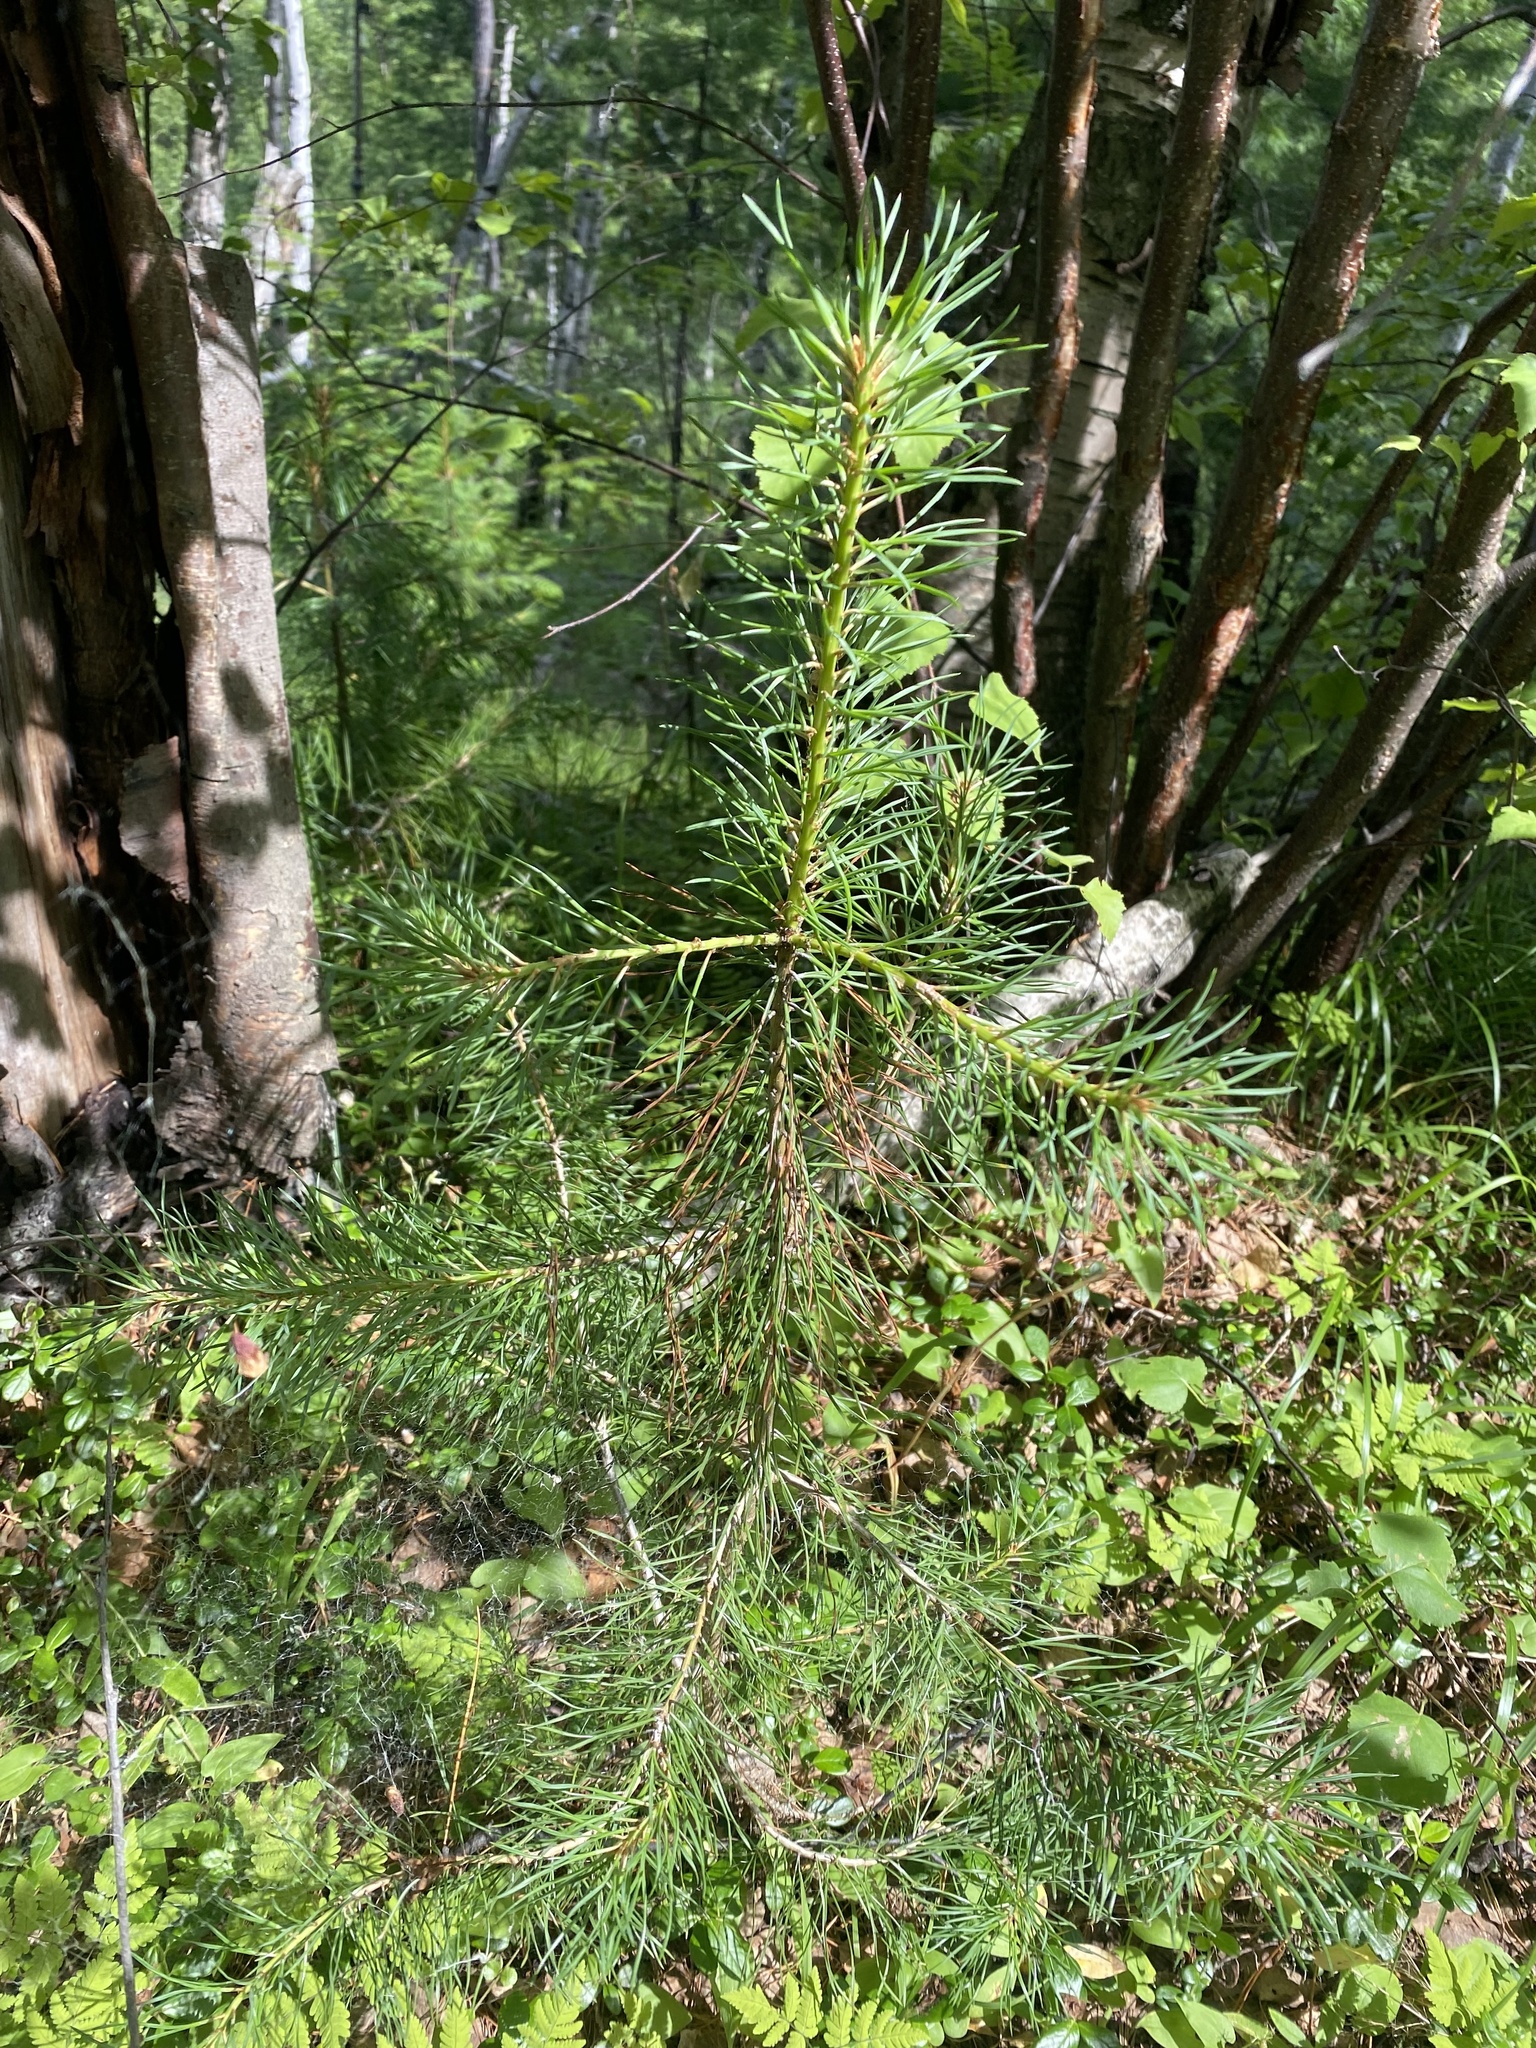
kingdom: Plantae
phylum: Tracheophyta
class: Pinopsida
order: Pinales
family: Pinaceae
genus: Pinus
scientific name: Pinus sylvestris
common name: Scots pine
